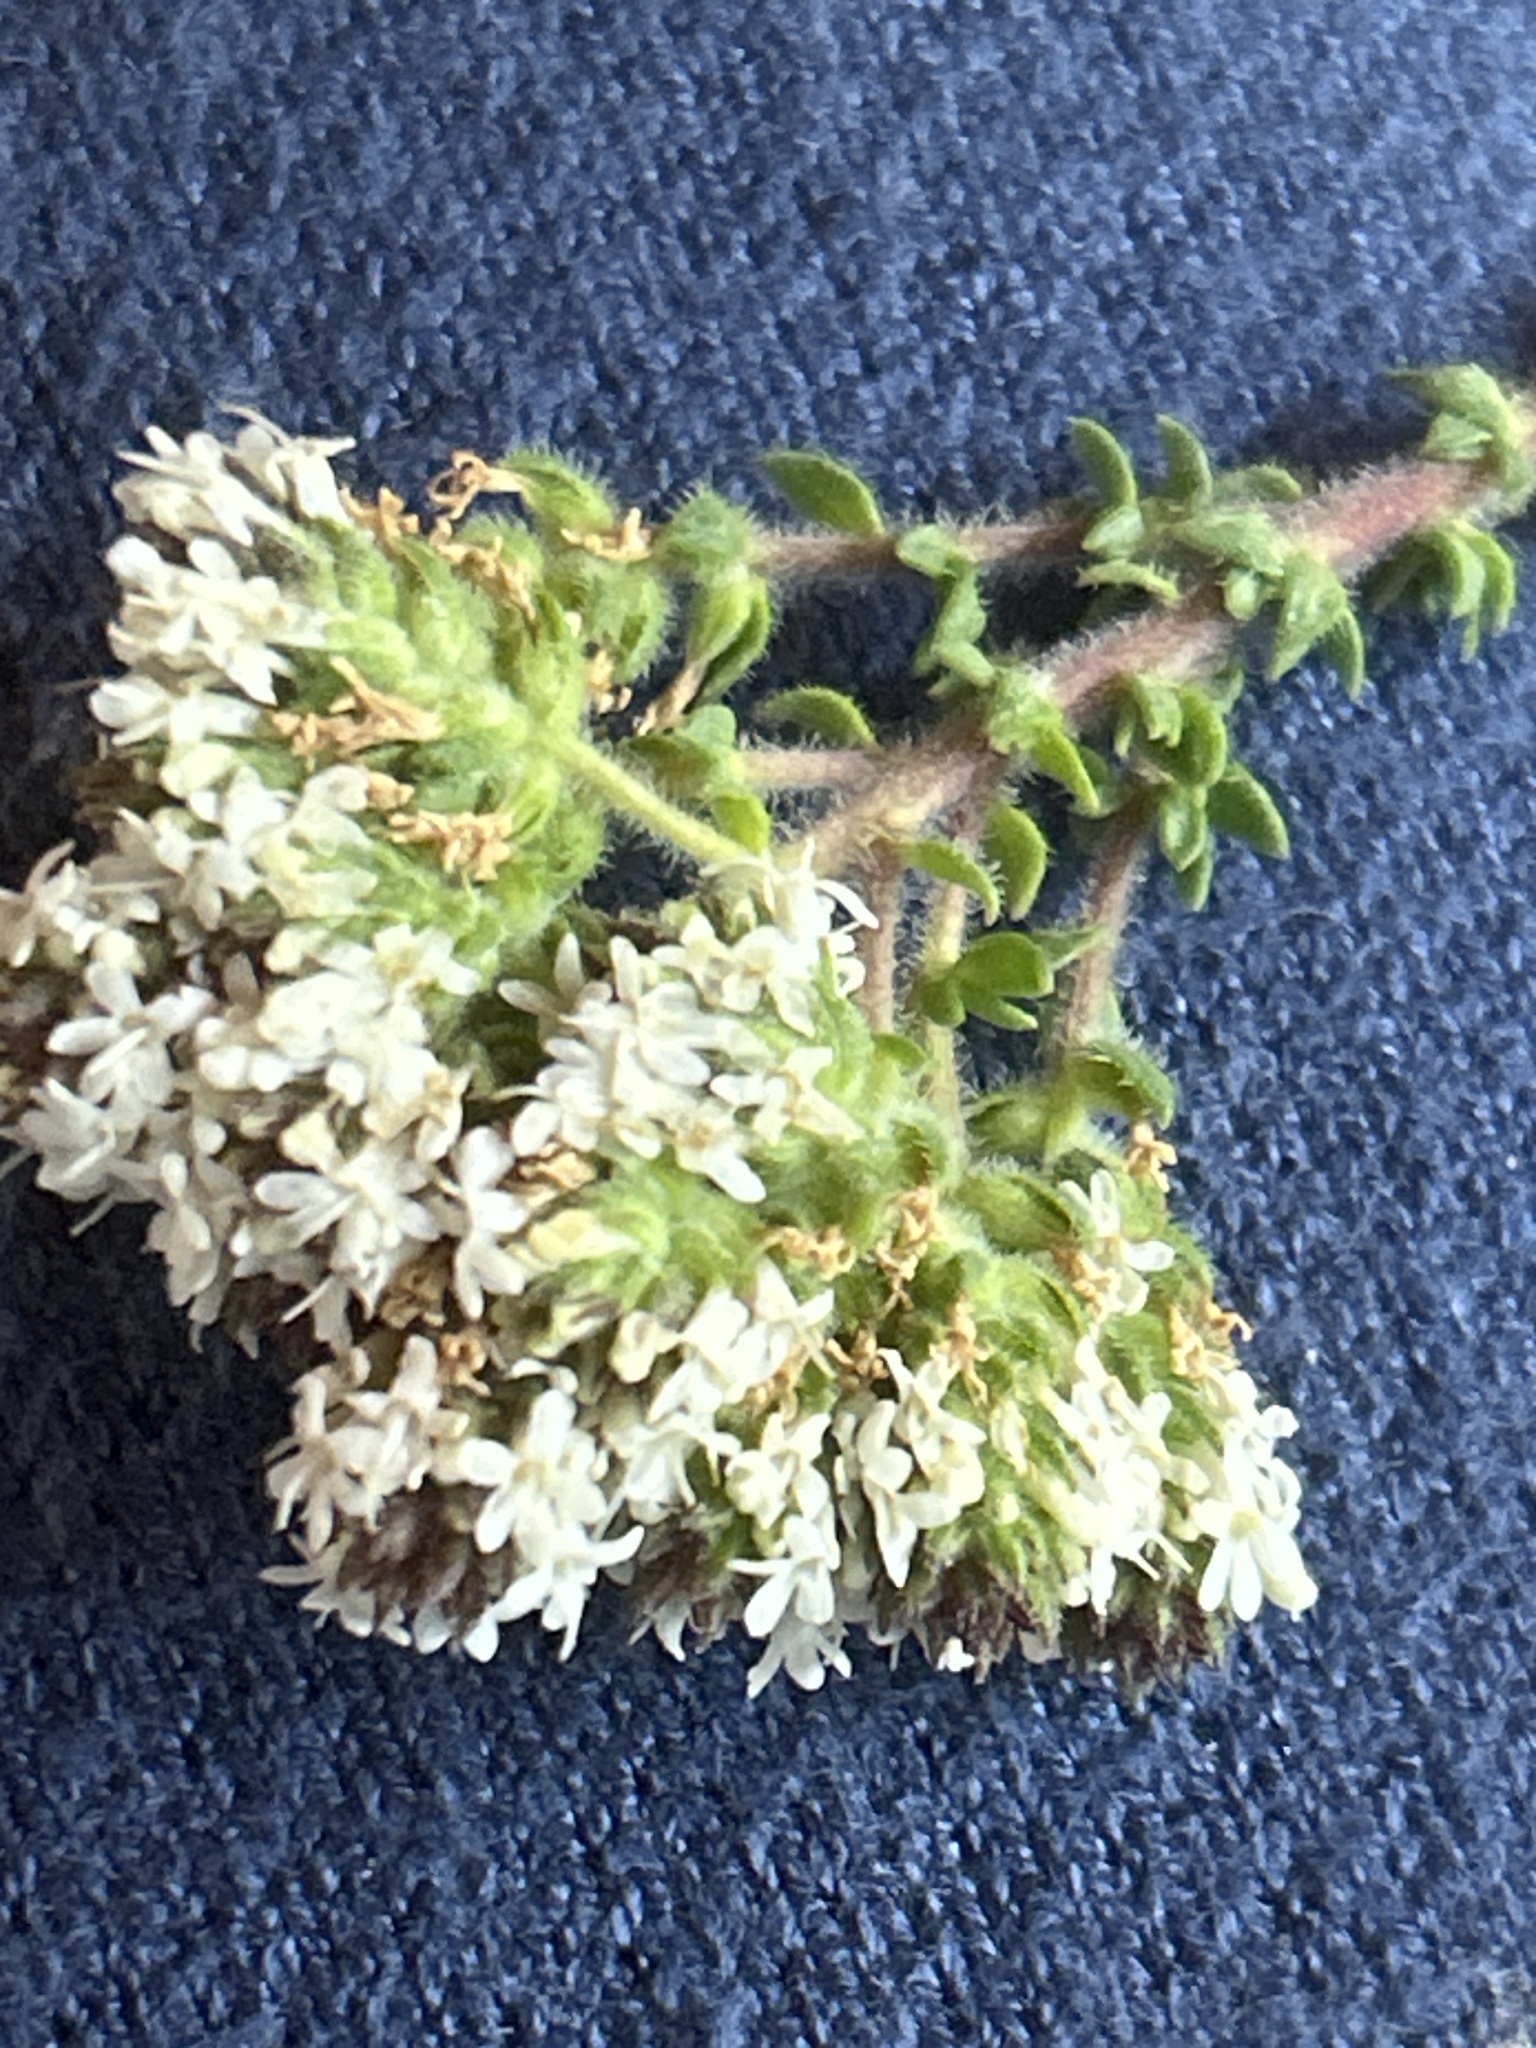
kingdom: Plantae
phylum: Tracheophyta
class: Magnoliopsida
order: Lamiales
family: Scrophulariaceae
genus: Selago
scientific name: Selago setulosa
